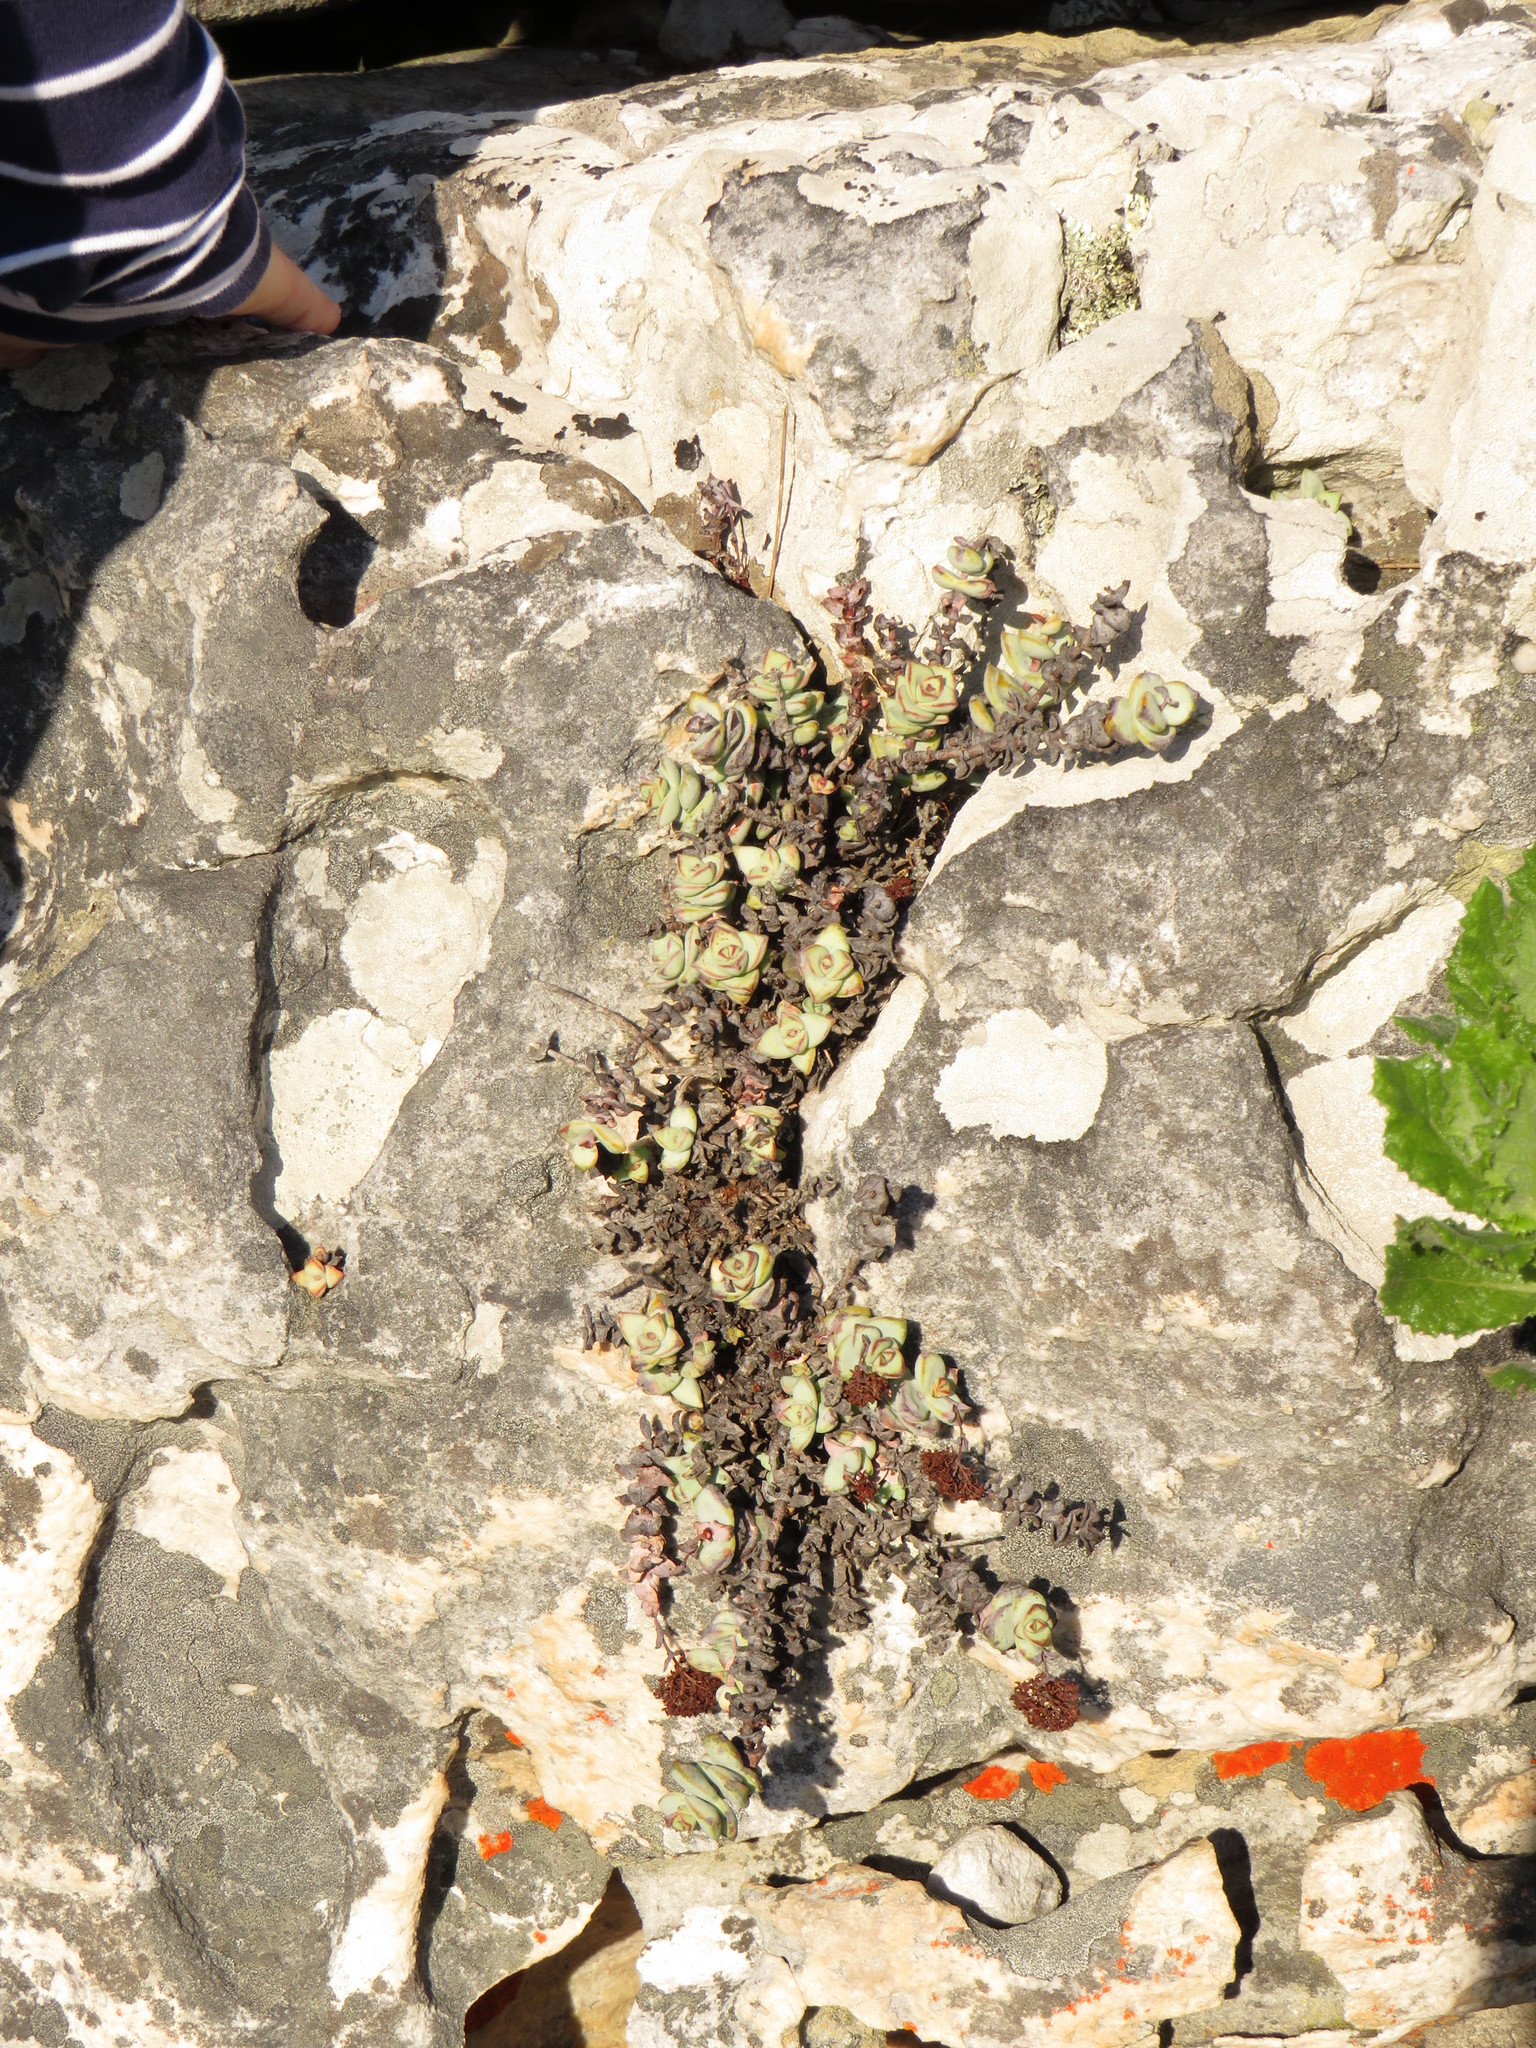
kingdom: Plantae
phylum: Tracheophyta
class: Magnoliopsida
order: Saxifragales
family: Crassulaceae
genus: Crassula
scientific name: Crassula rupestris
